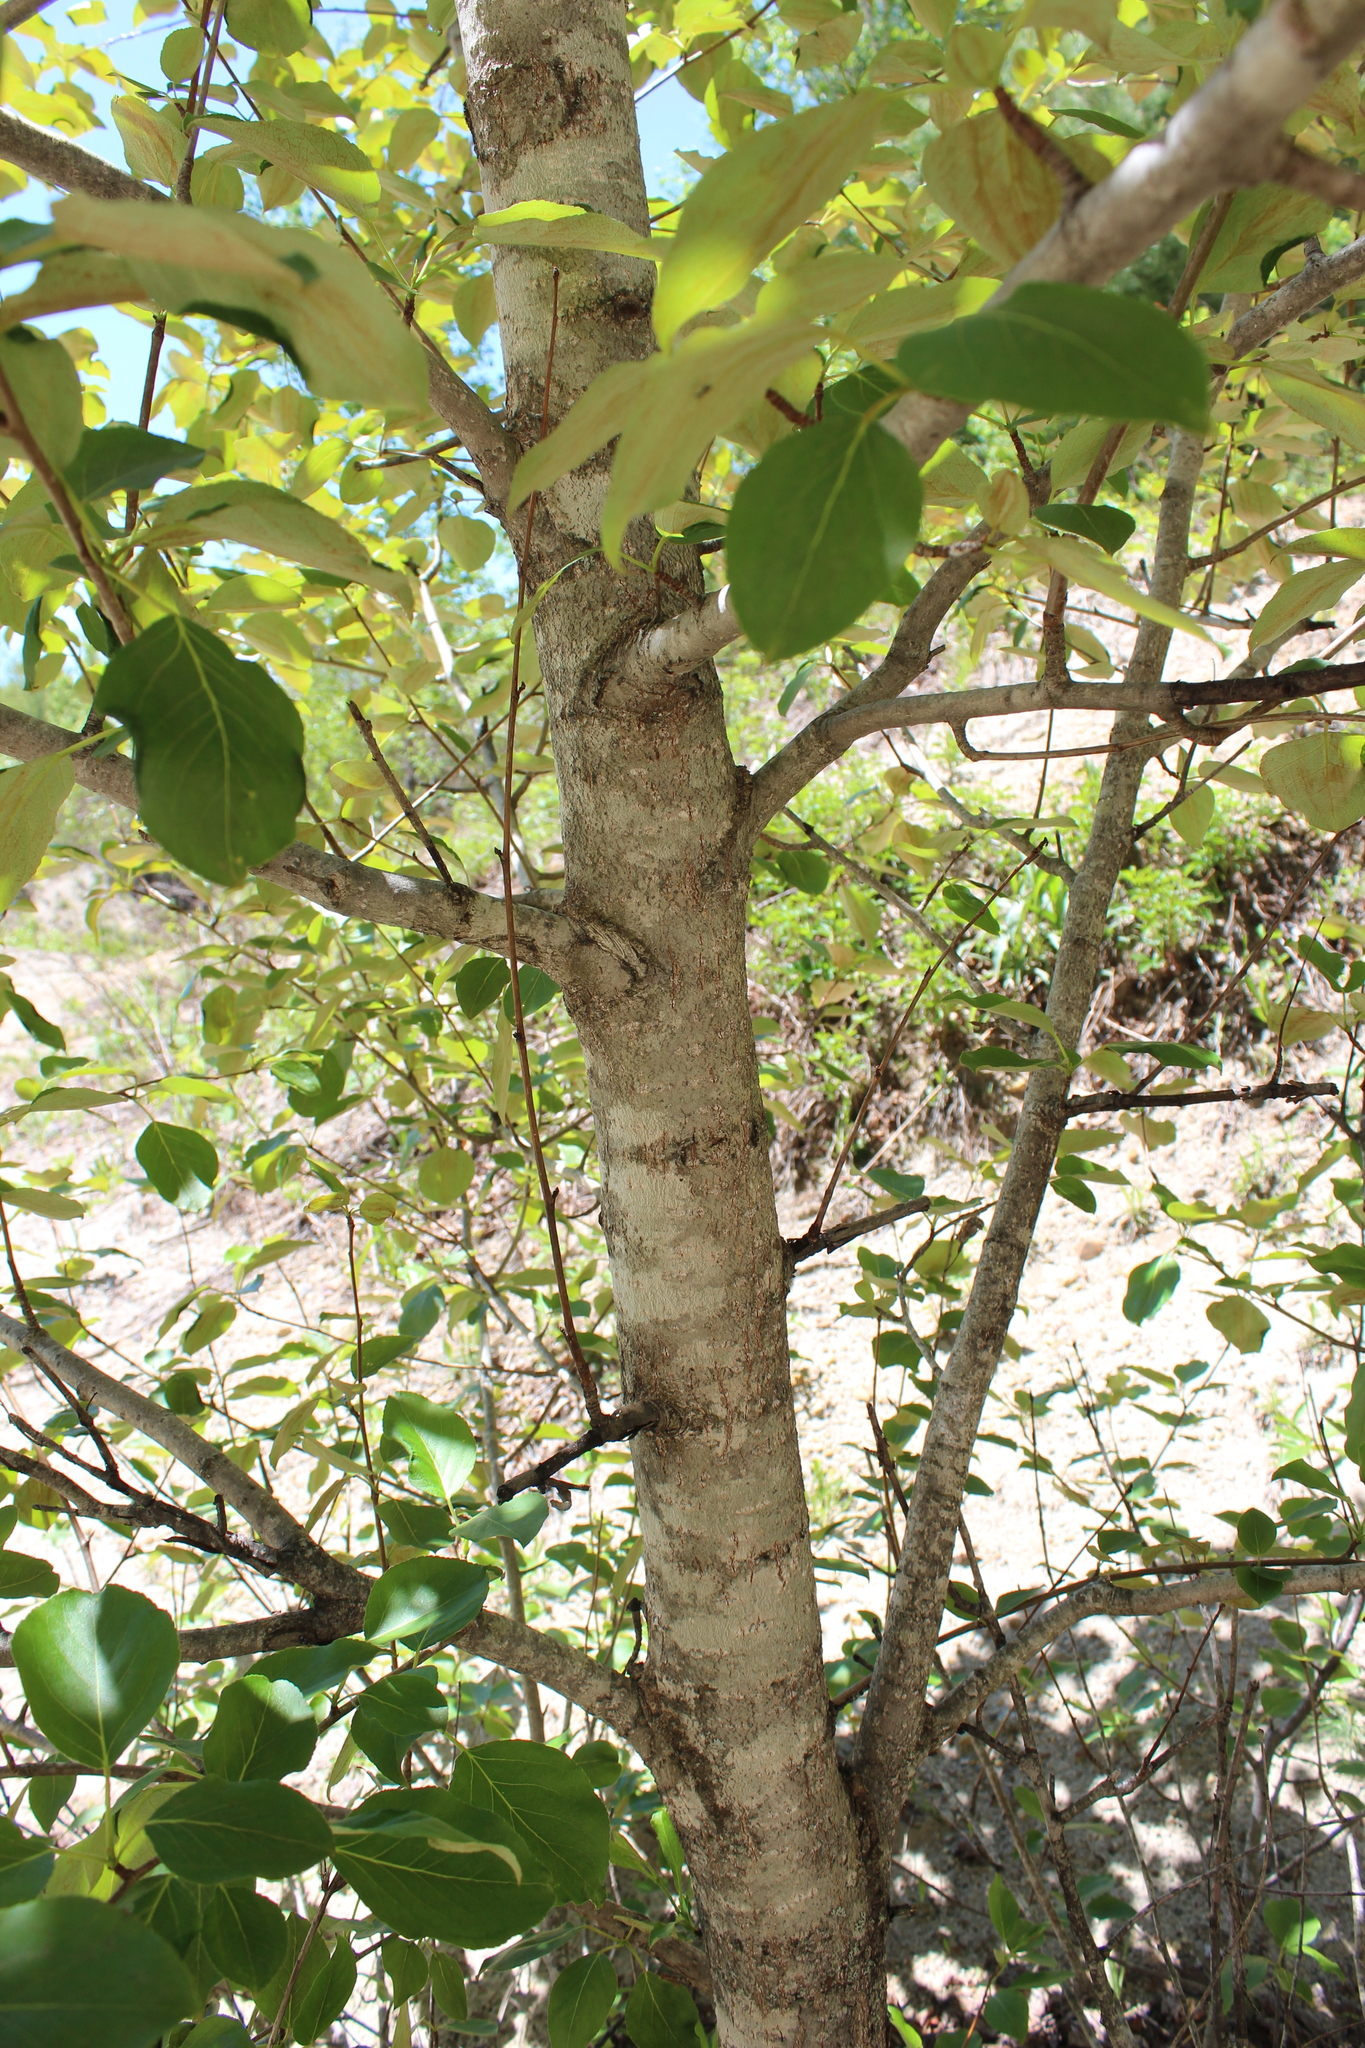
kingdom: Plantae
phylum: Tracheophyta
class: Magnoliopsida
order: Malpighiales
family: Salicaceae
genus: Populus
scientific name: Populus balsamifera
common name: Balsam poplar
